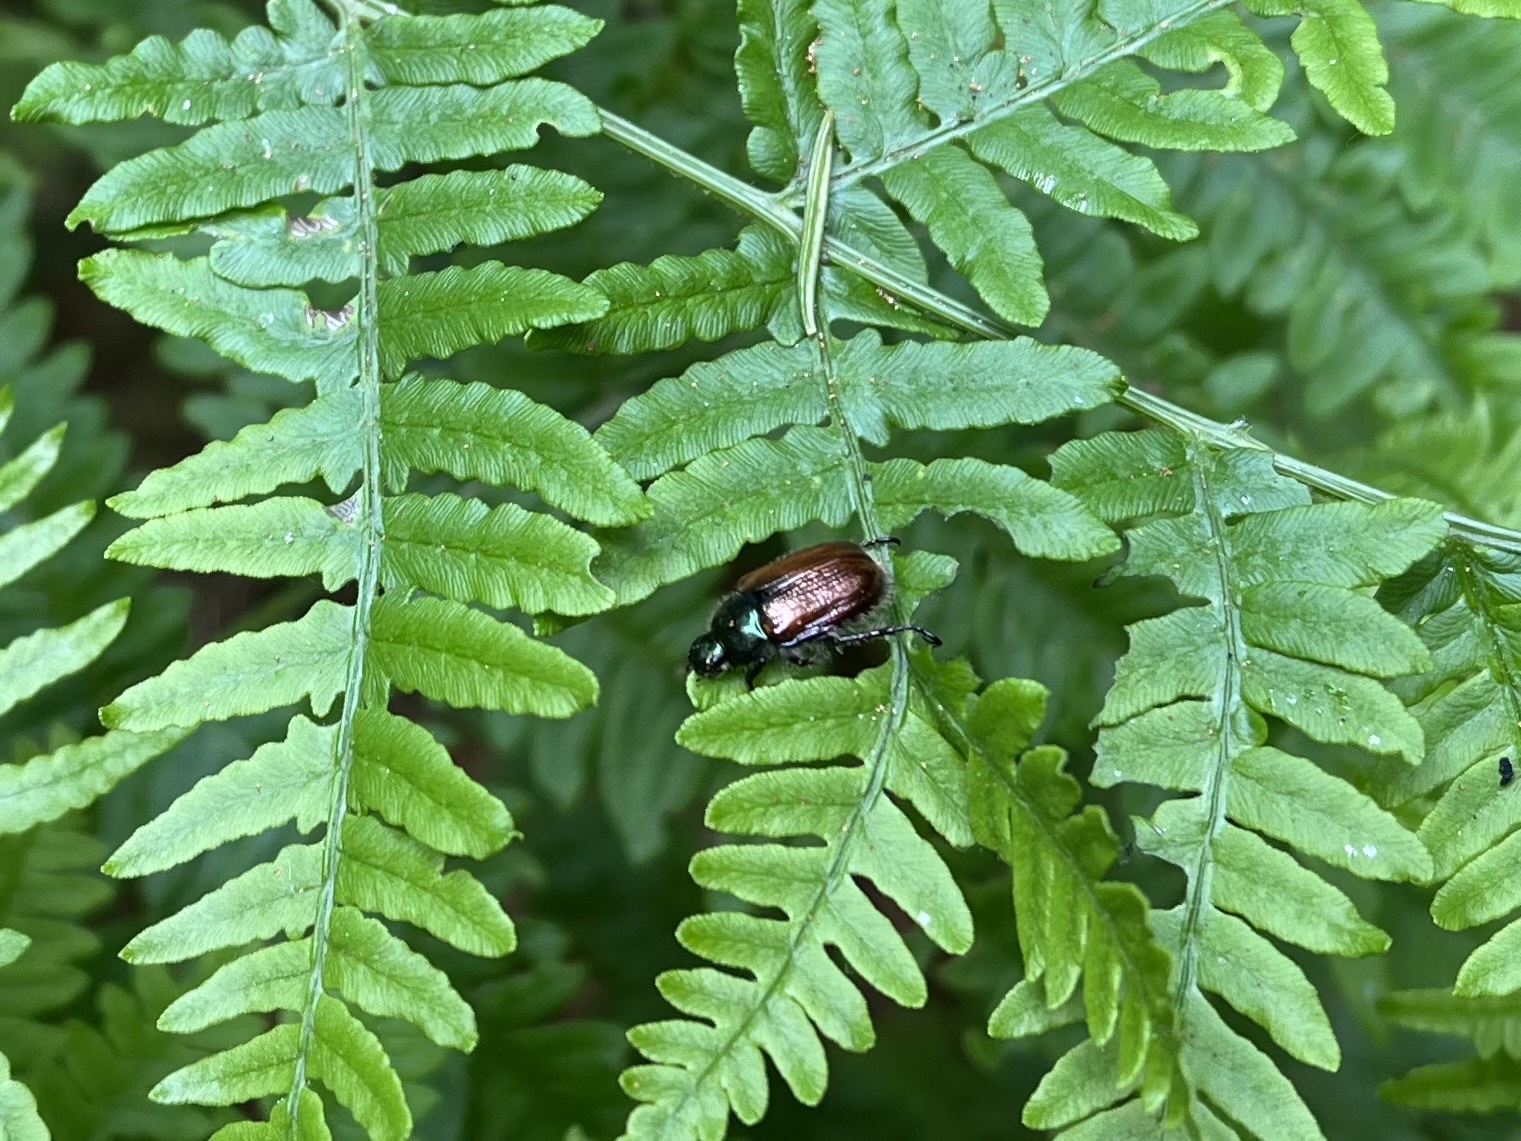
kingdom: Animalia
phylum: Arthropoda
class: Insecta
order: Coleoptera
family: Scarabaeidae
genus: Phyllopertha
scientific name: Phyllopertha horticola
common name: Garden chafer
